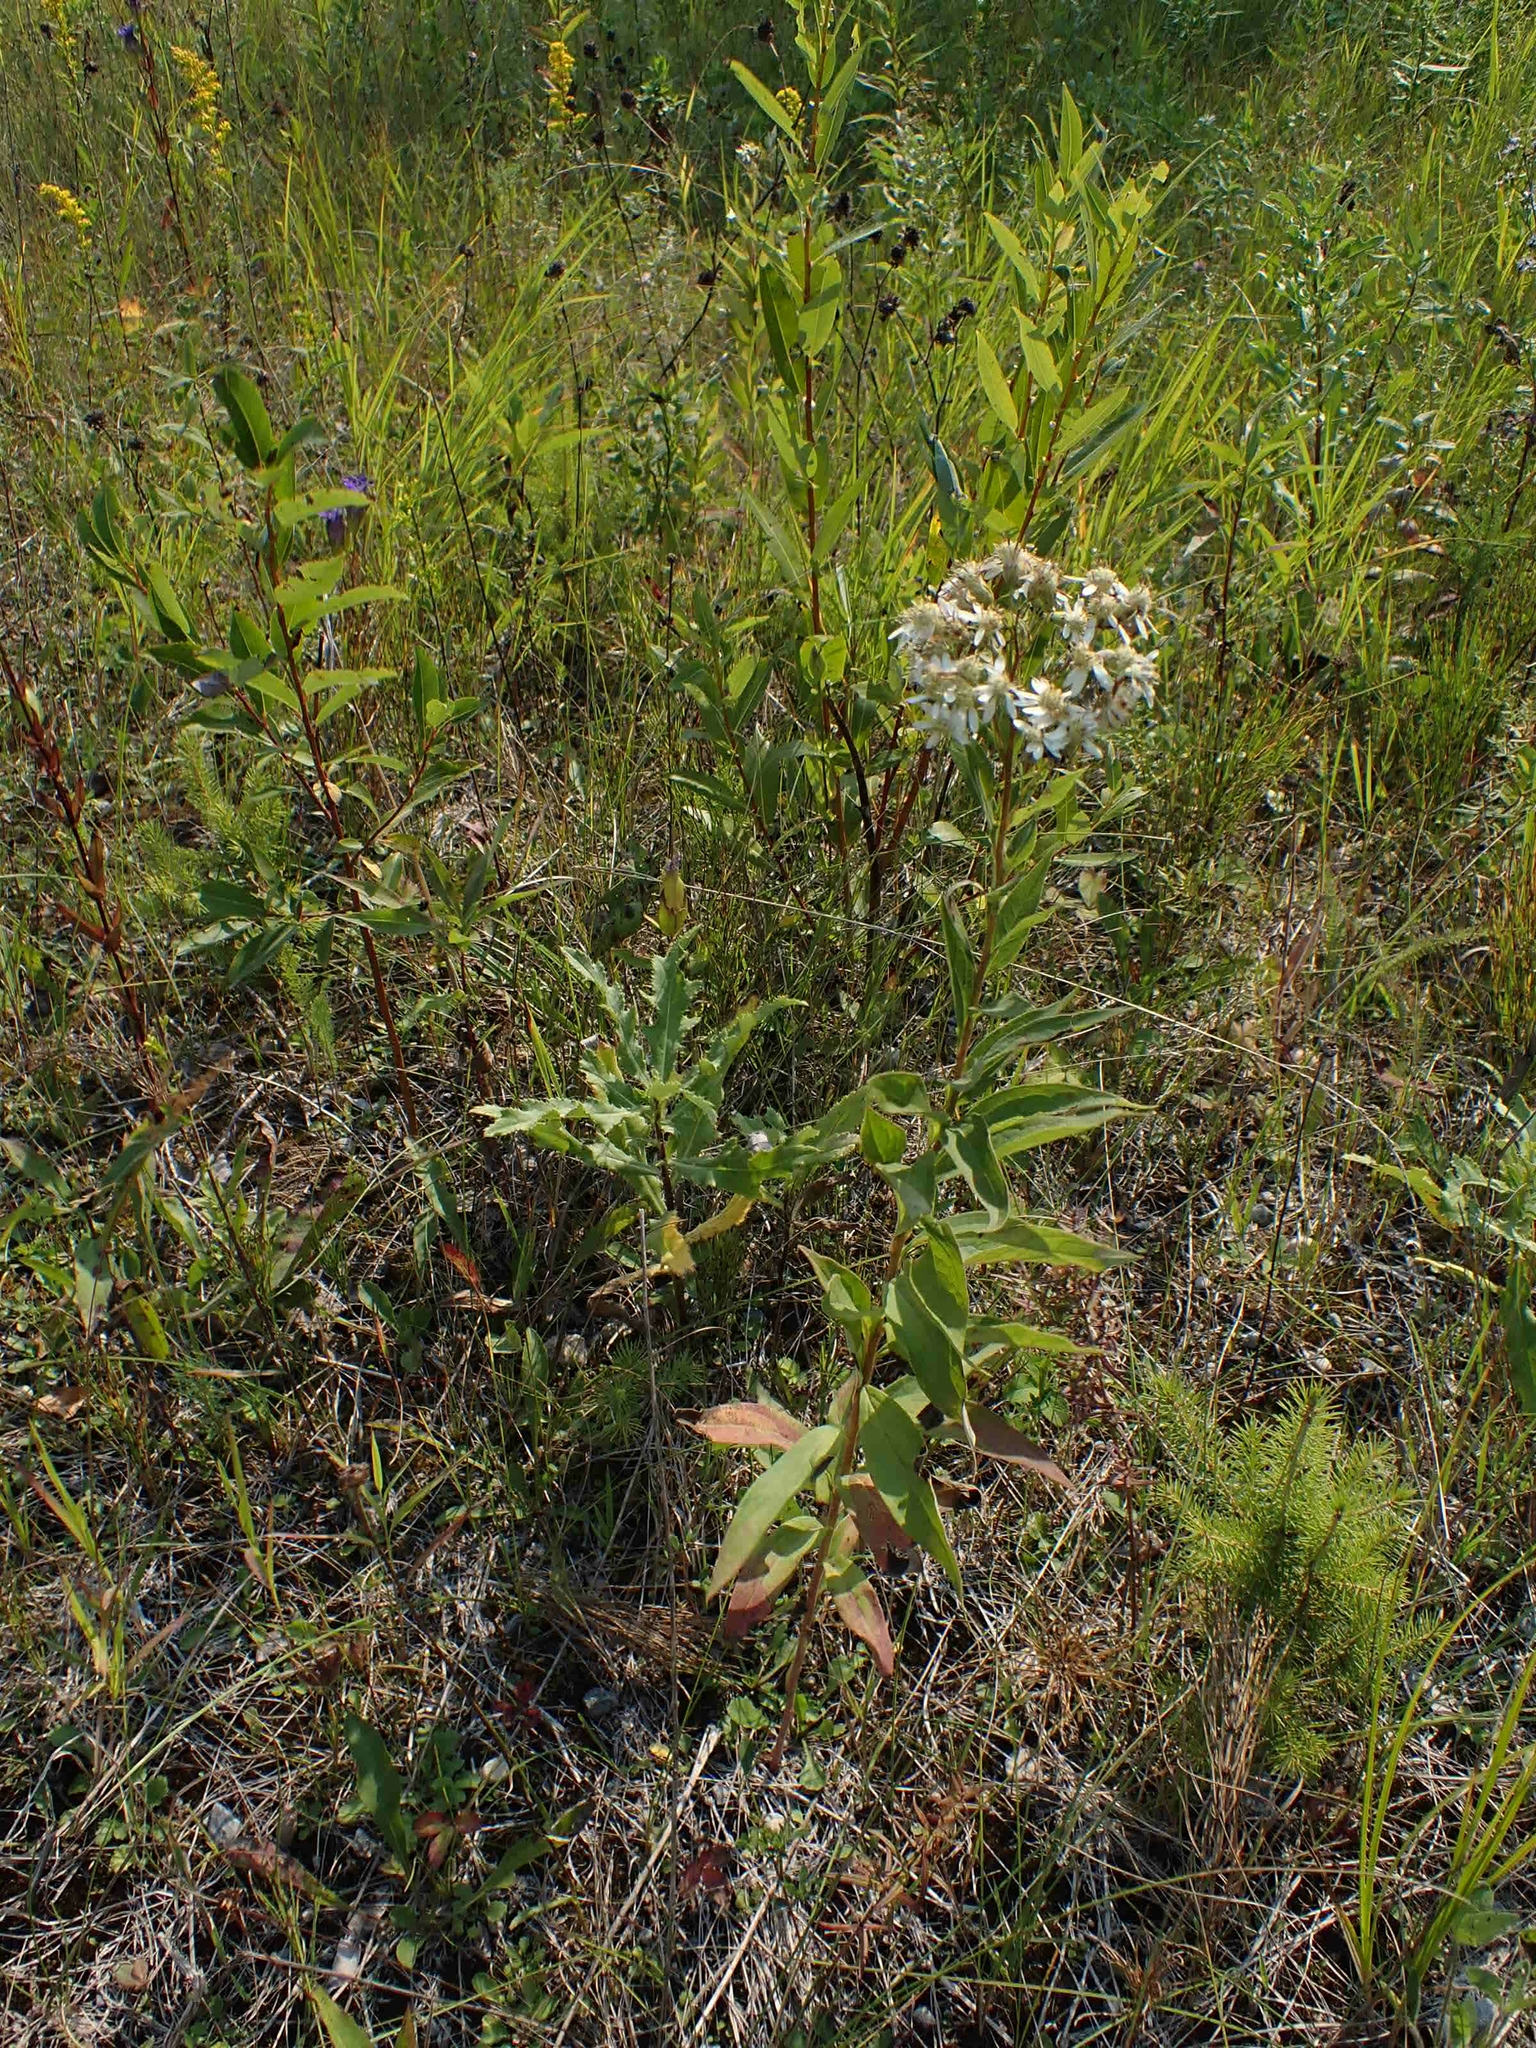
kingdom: Plantae
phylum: Tracheophyta
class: Magnoliopsida
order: Asterales
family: Asteraceae
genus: Doellingeria
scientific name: Doellingeria umbellata
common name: Flat-top white aster
